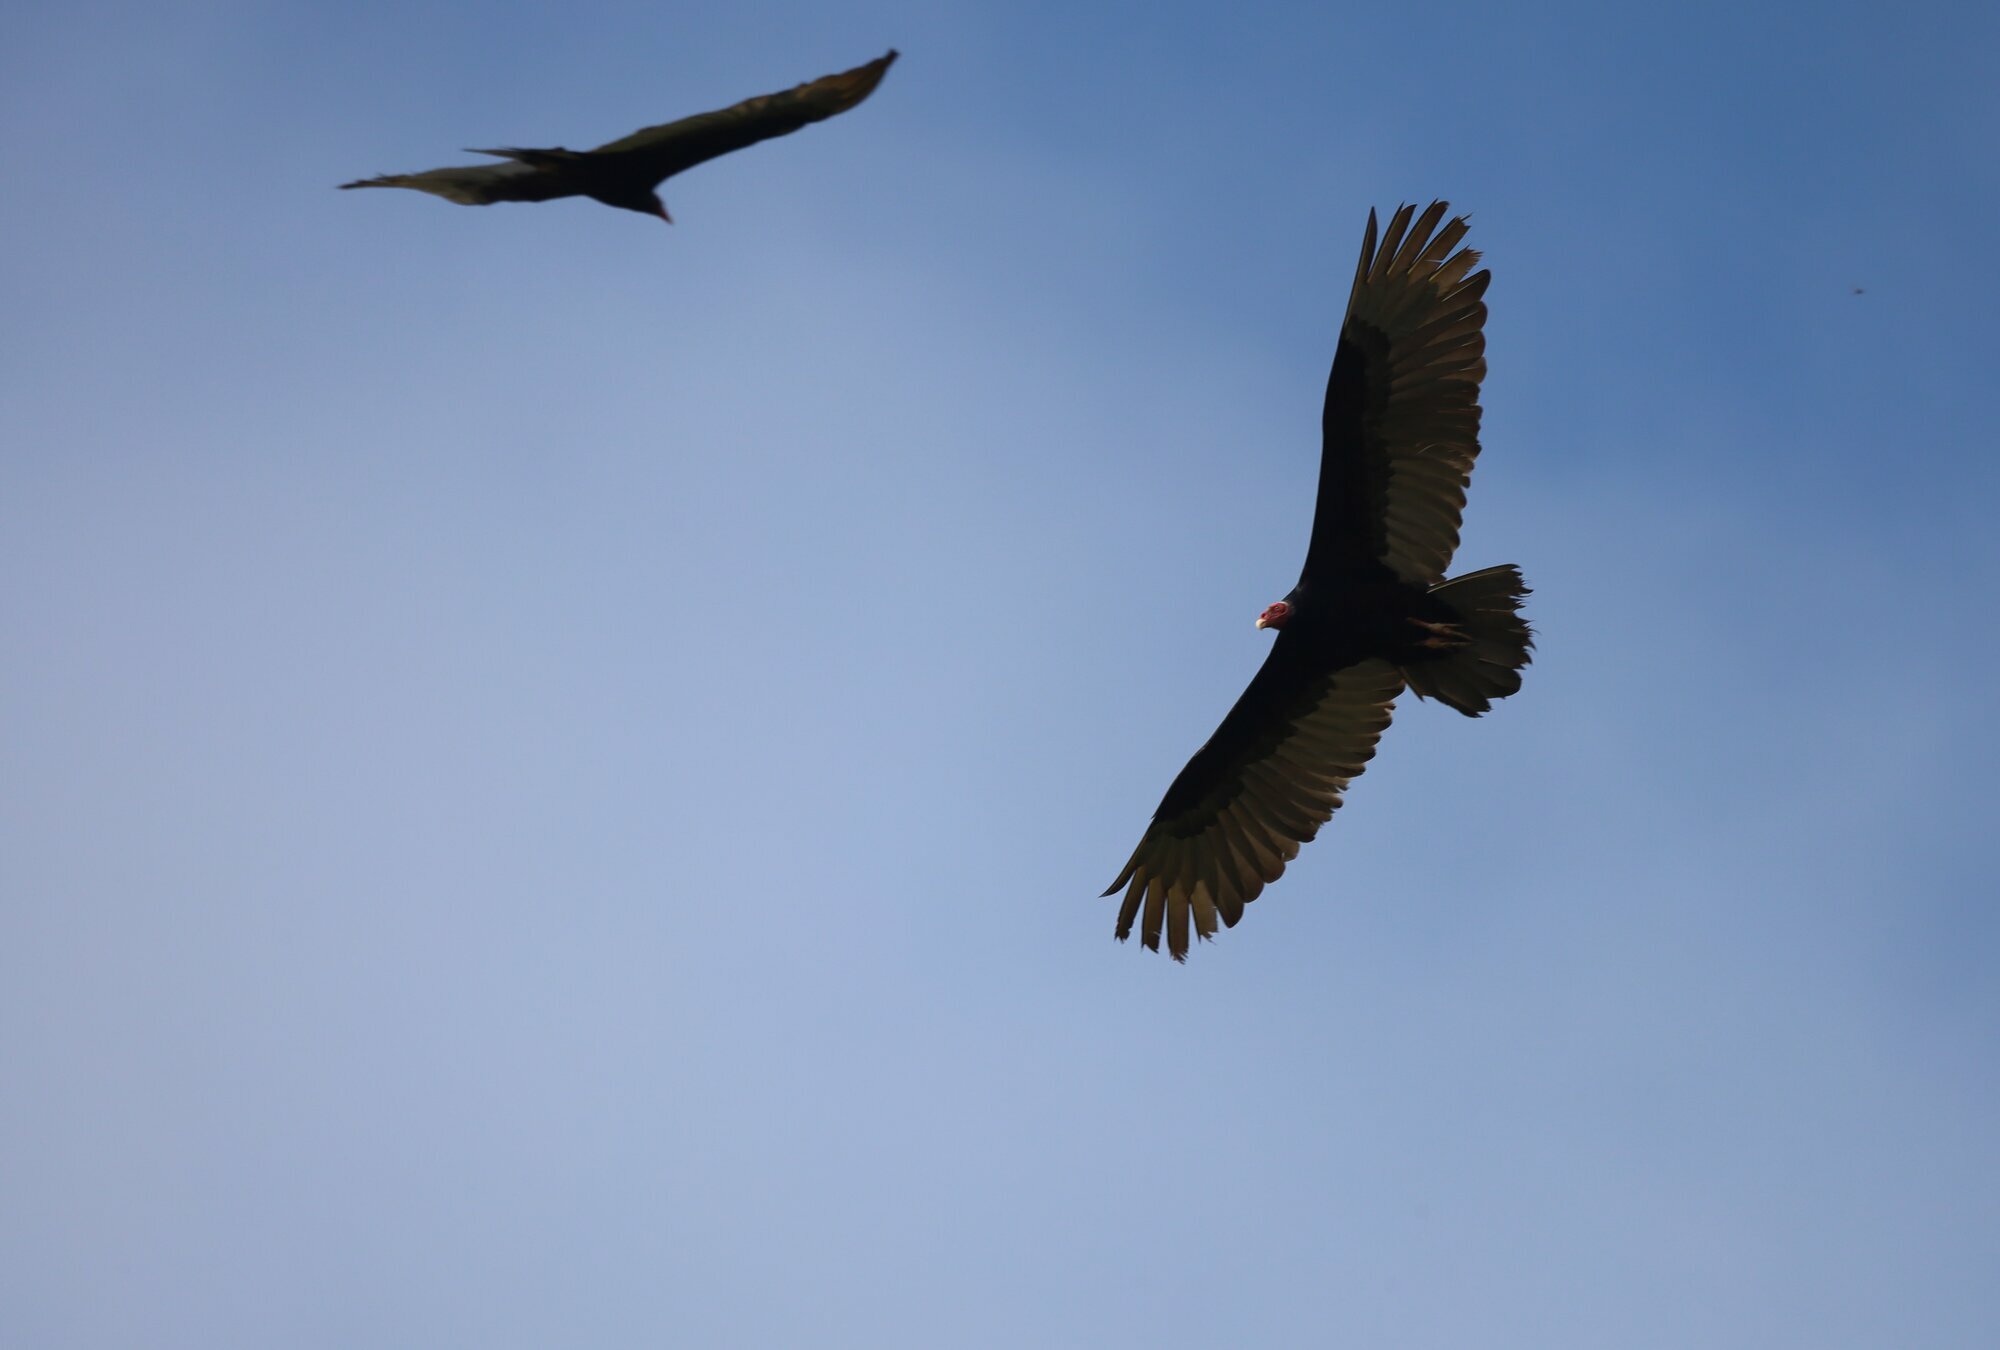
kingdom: Animalia
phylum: Chordata
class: Aves
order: Accipitriformes
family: Cathartidae
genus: Cathartes
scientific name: Cathartes aura
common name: Turkey vulture
